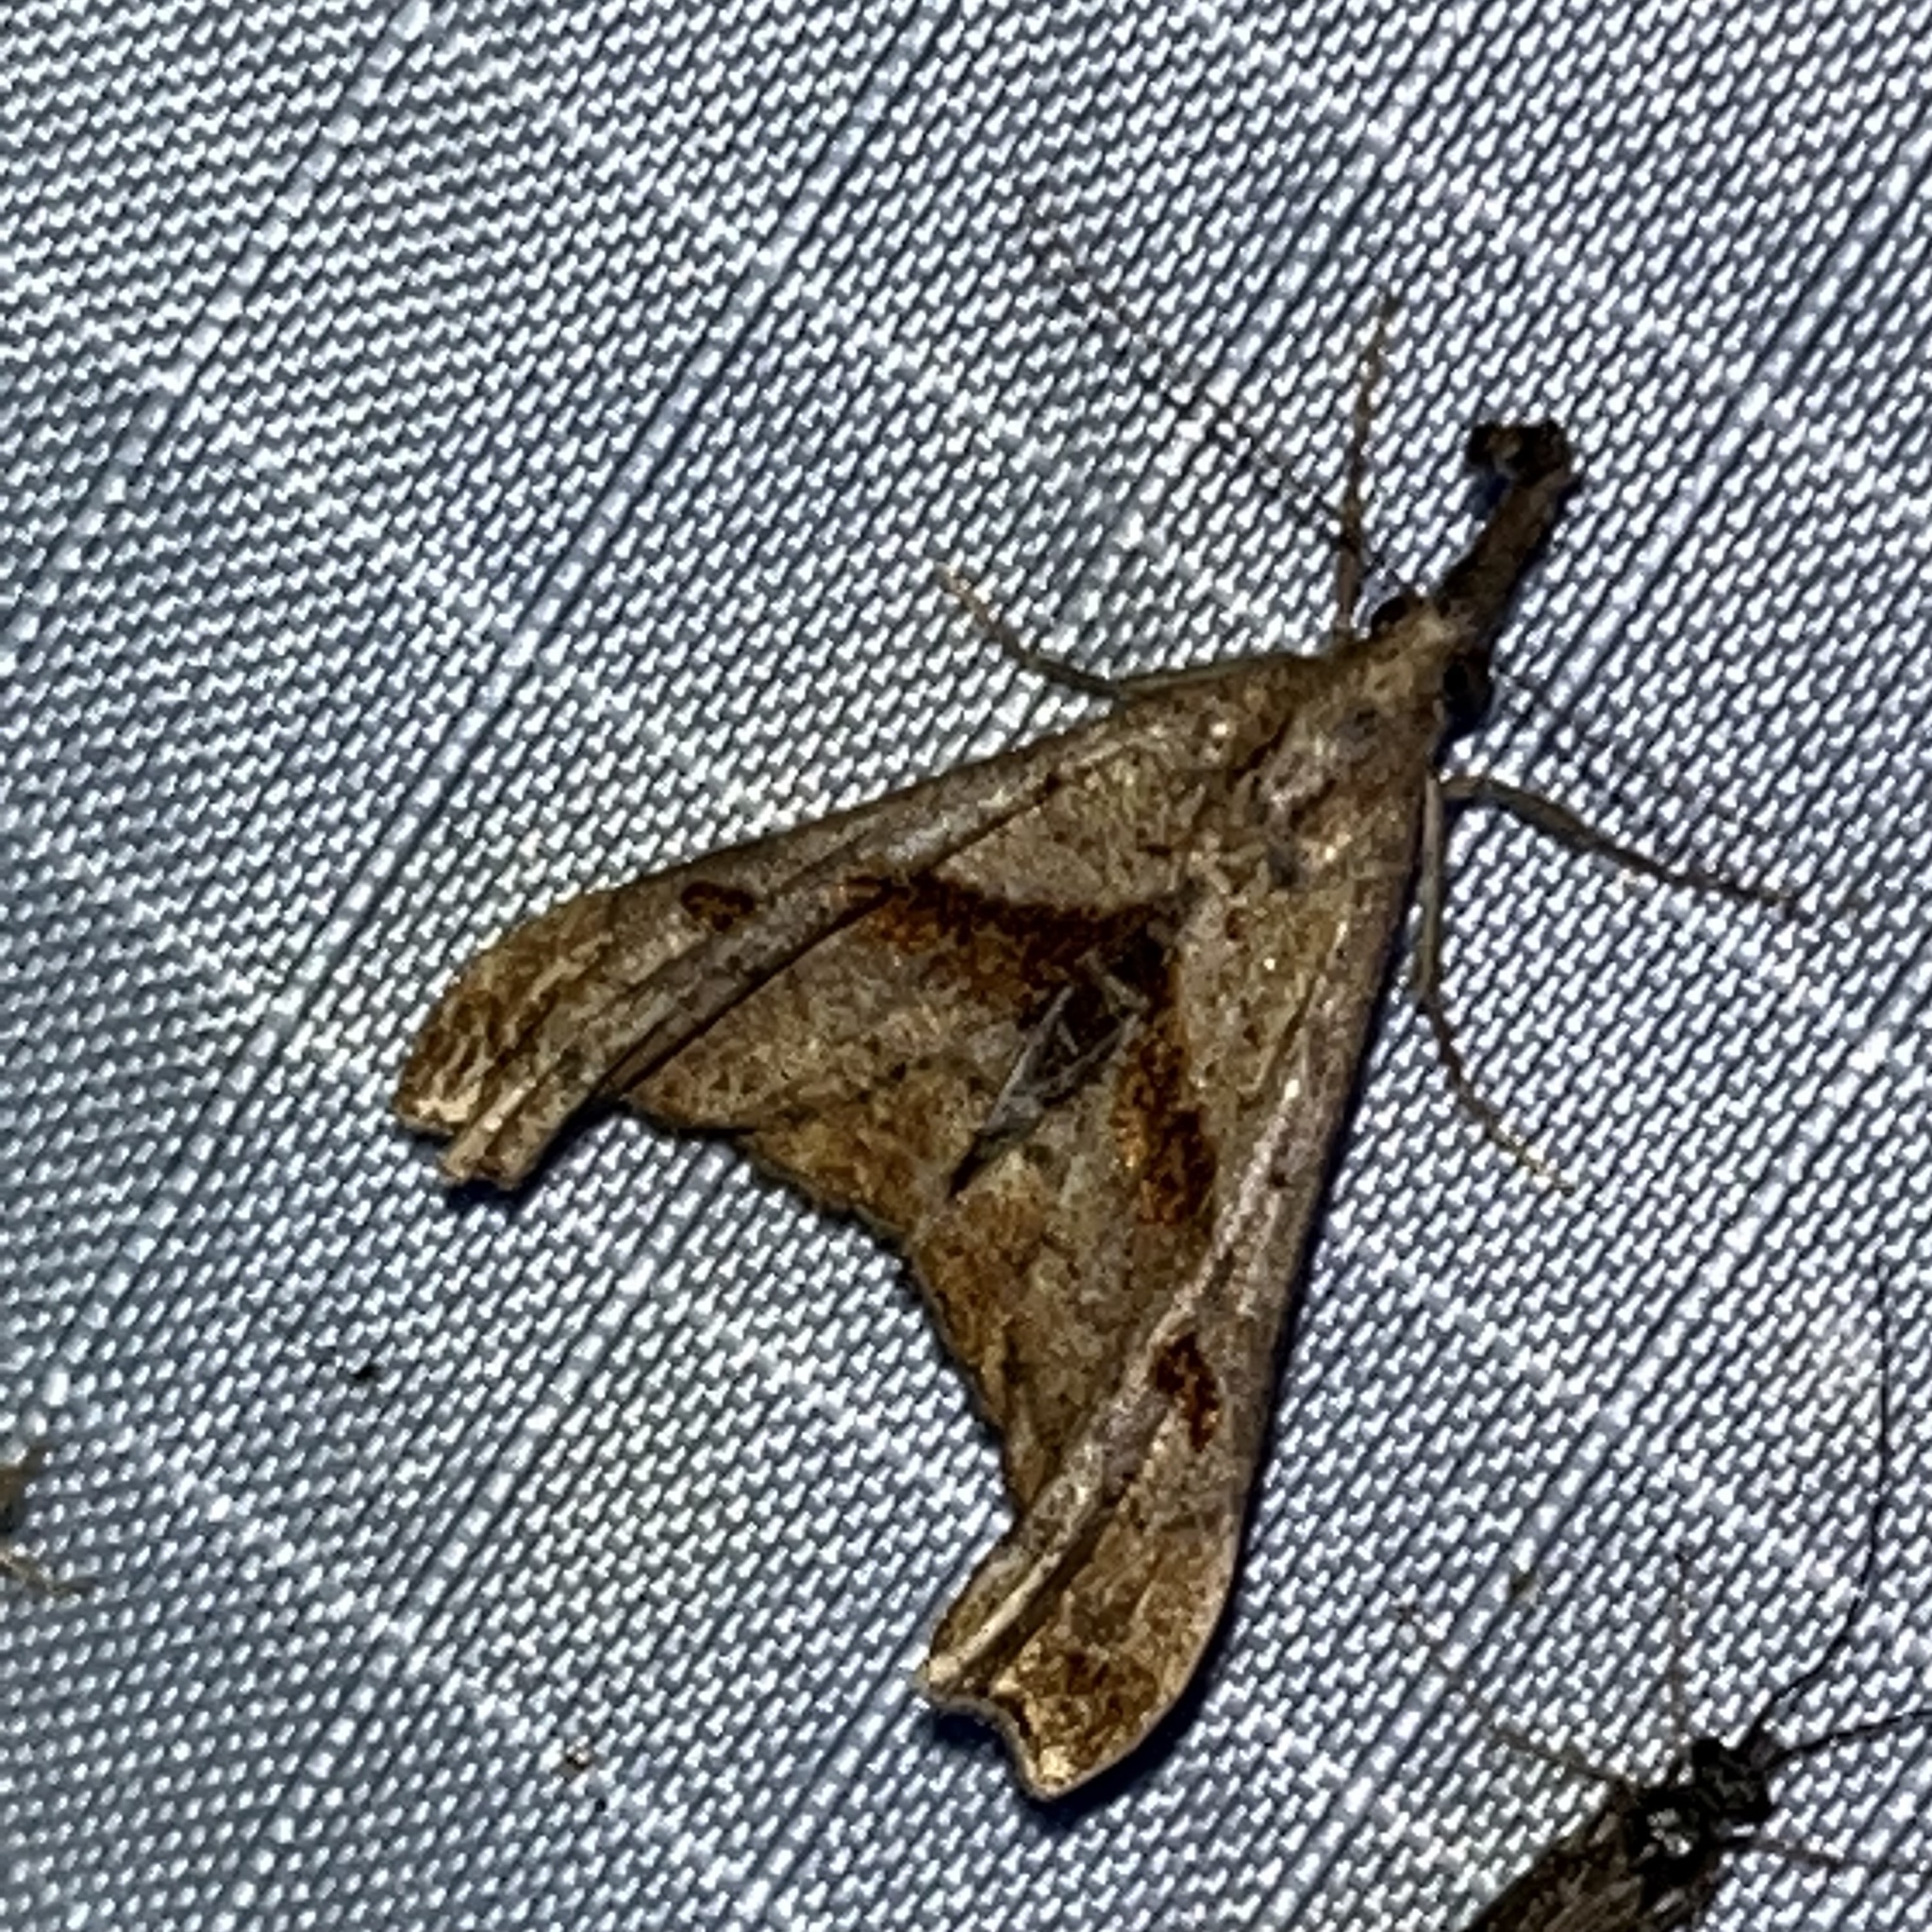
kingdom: Animalia
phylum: Arthropoda
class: Insecta
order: Lepidoptera
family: Erebidae
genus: Palthis
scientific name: Palthis angulalis
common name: Dark-spotted palthis moth
